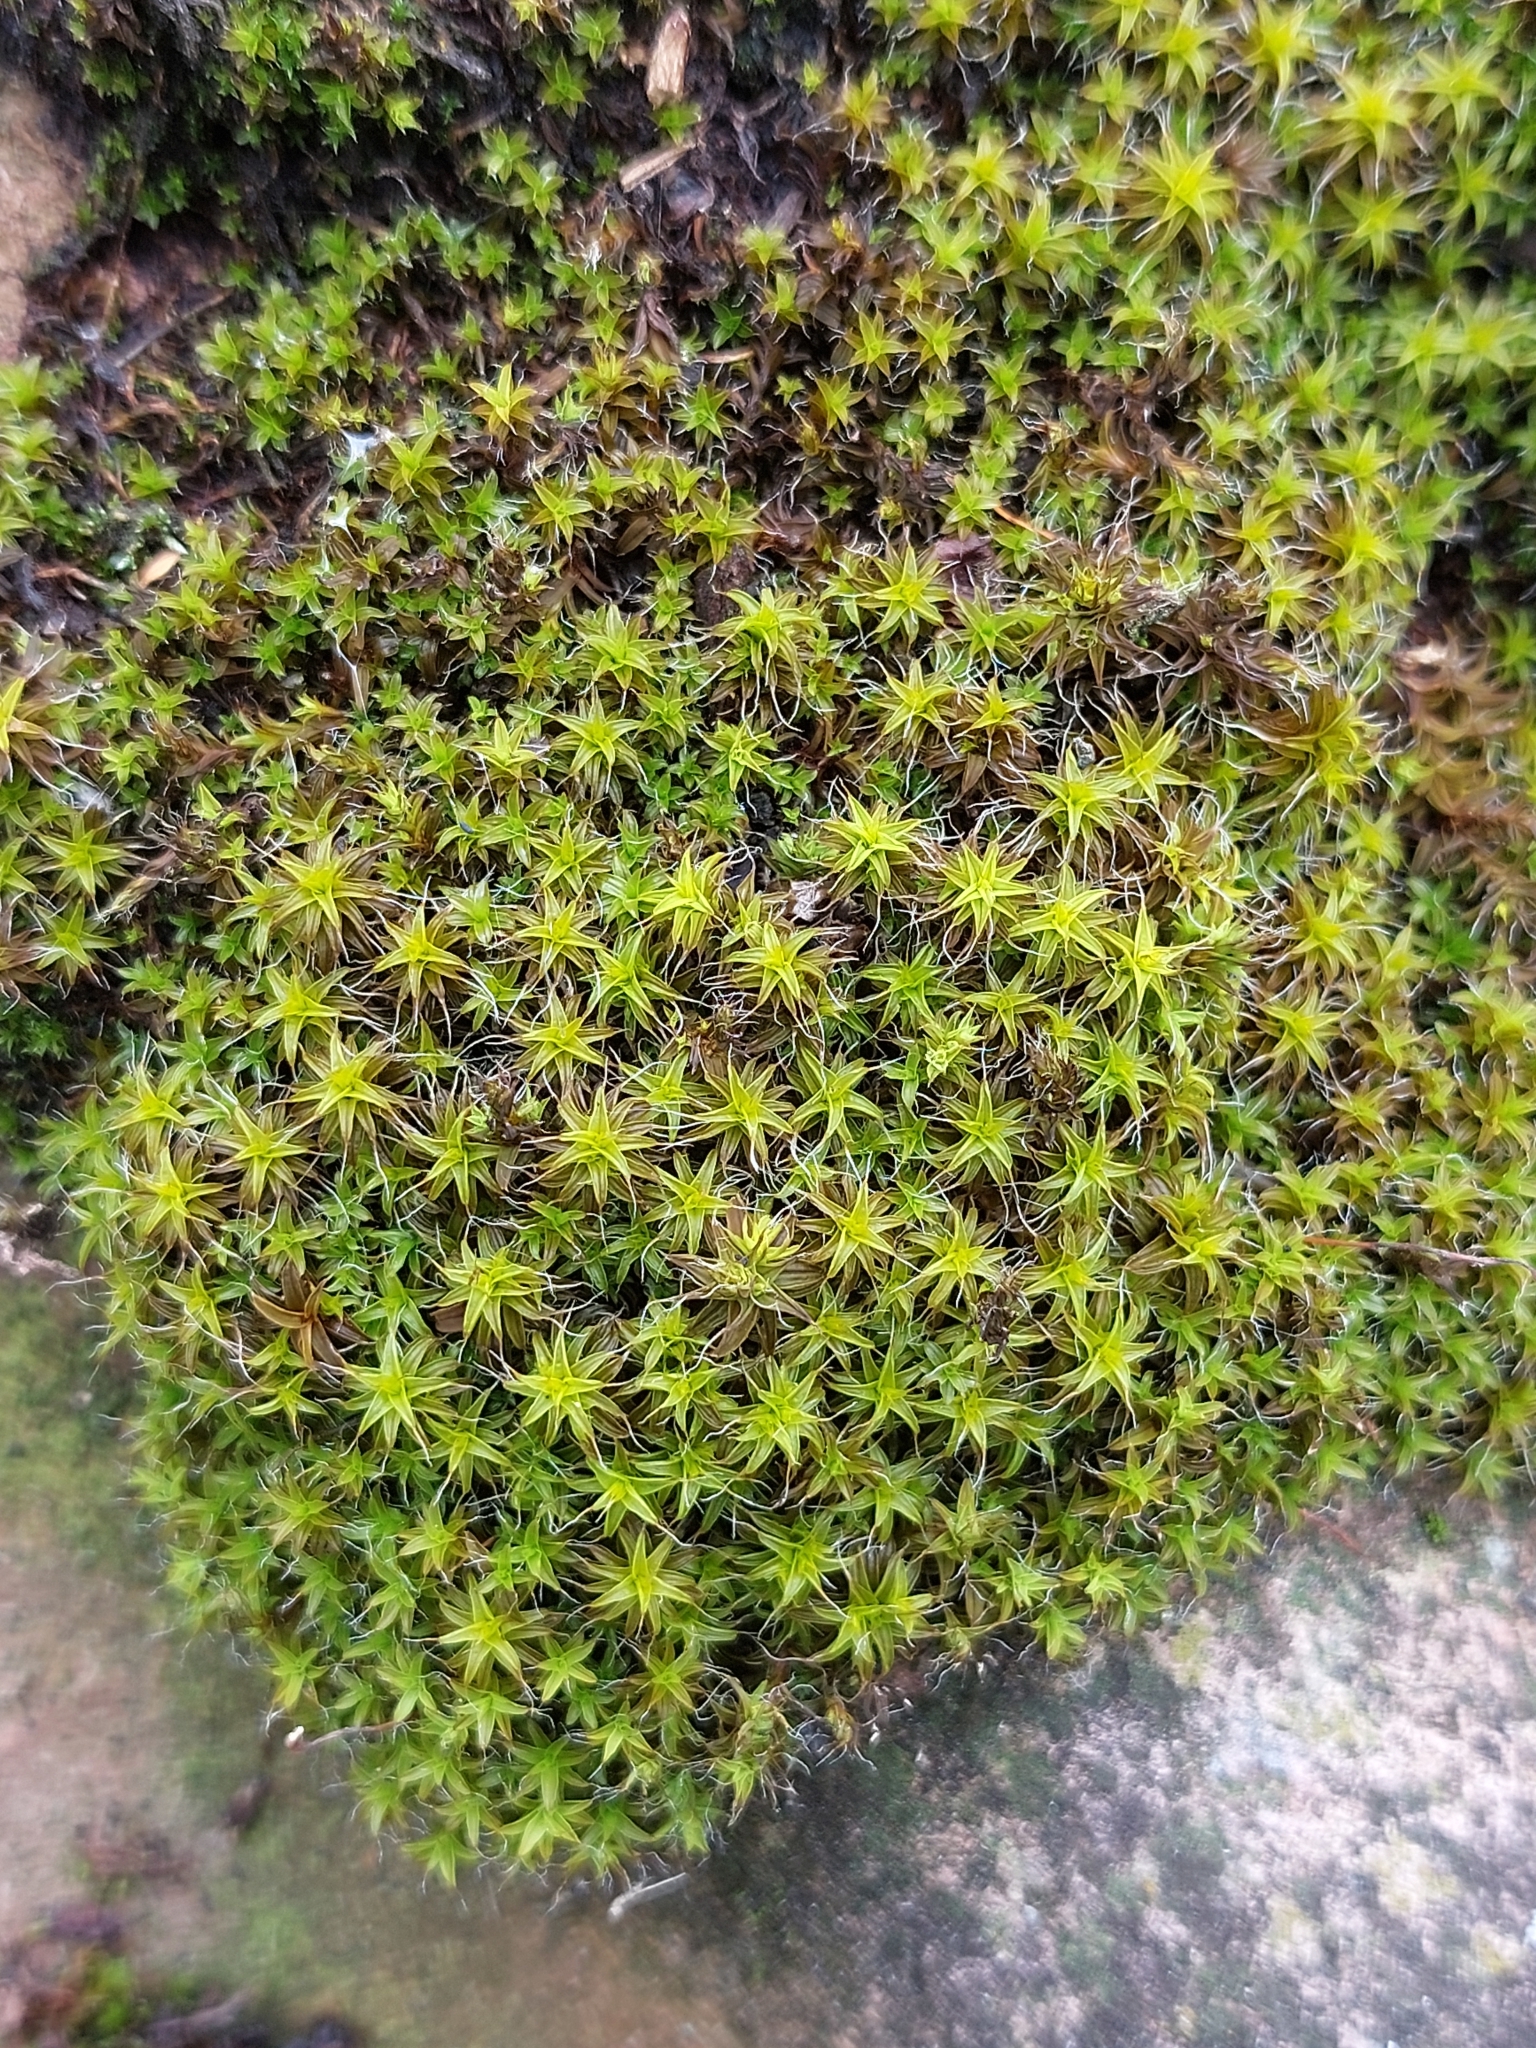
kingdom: Plantae
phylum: Bryophyta
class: Bryopsida
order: Pottiales
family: Pottiaceae
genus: Syntrichia
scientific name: Syntrichia ruralis
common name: Sidewalk screw moss
